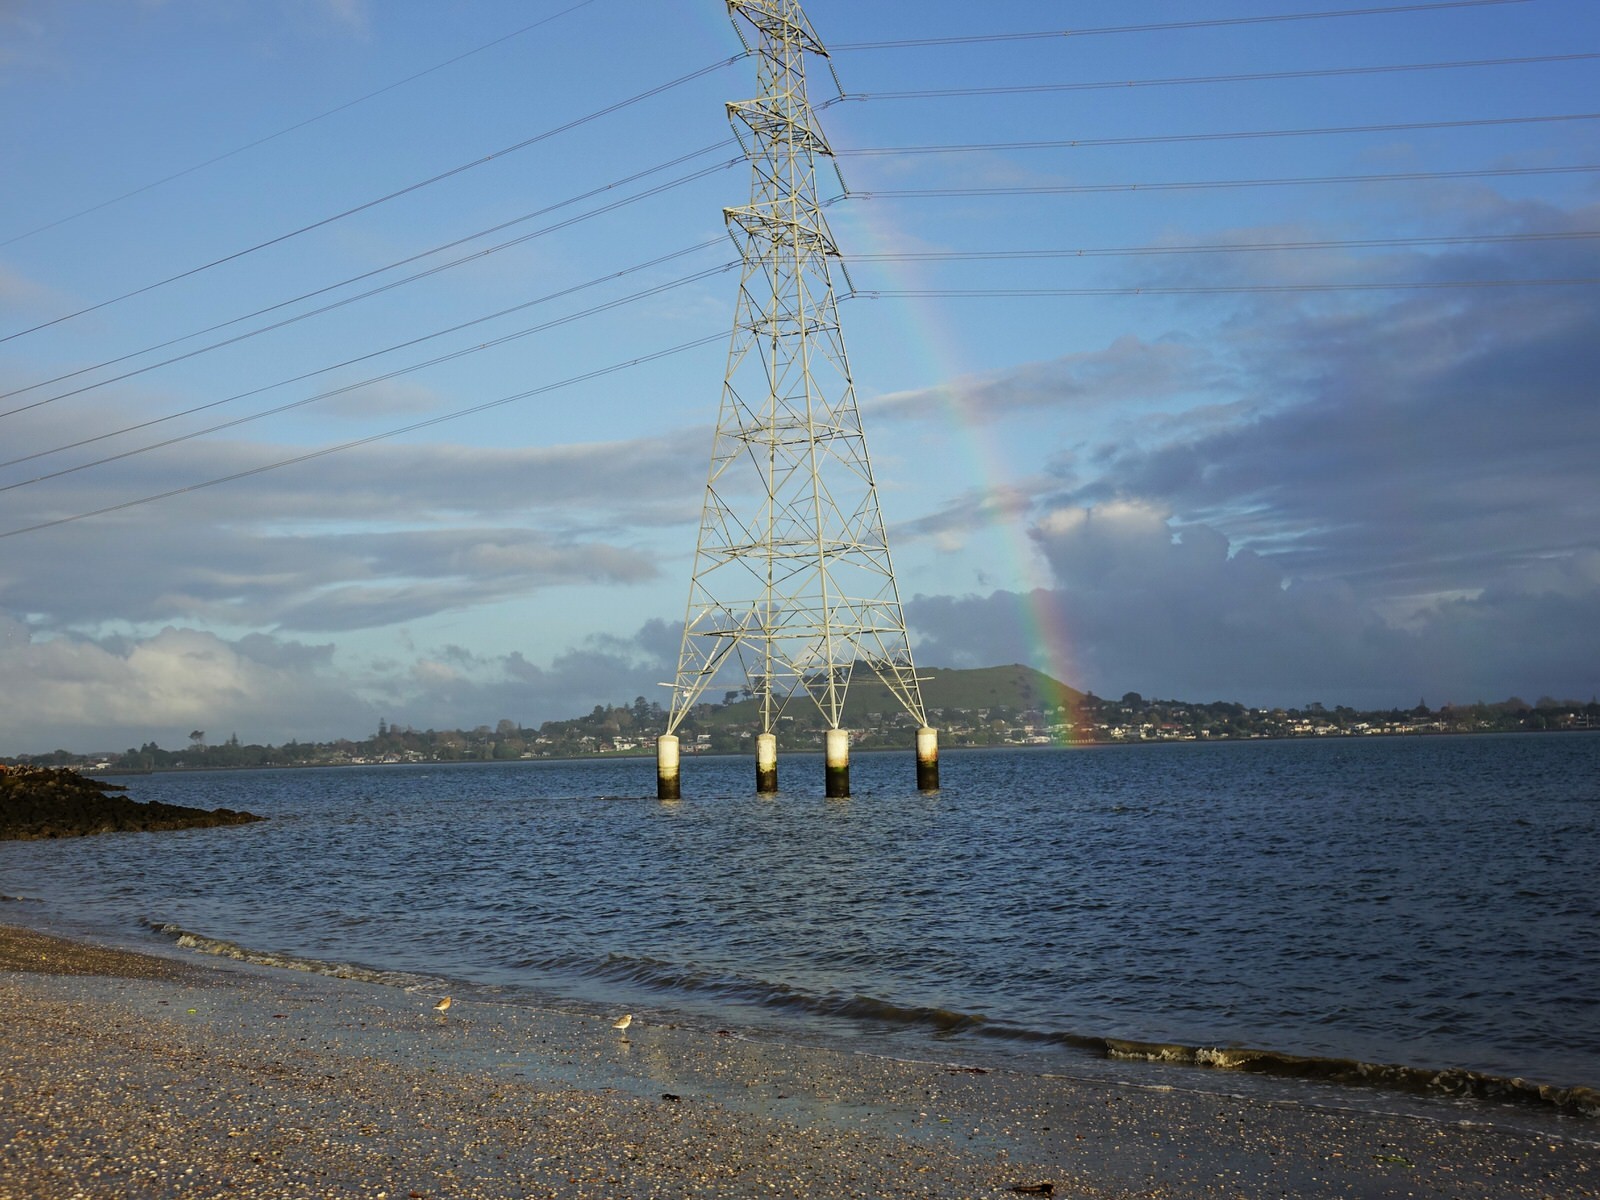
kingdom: Animalia
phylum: Chordata
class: Aves
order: Charadriiformes
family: Charadriidae
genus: Anarhynchus
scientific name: Anarhynchus
